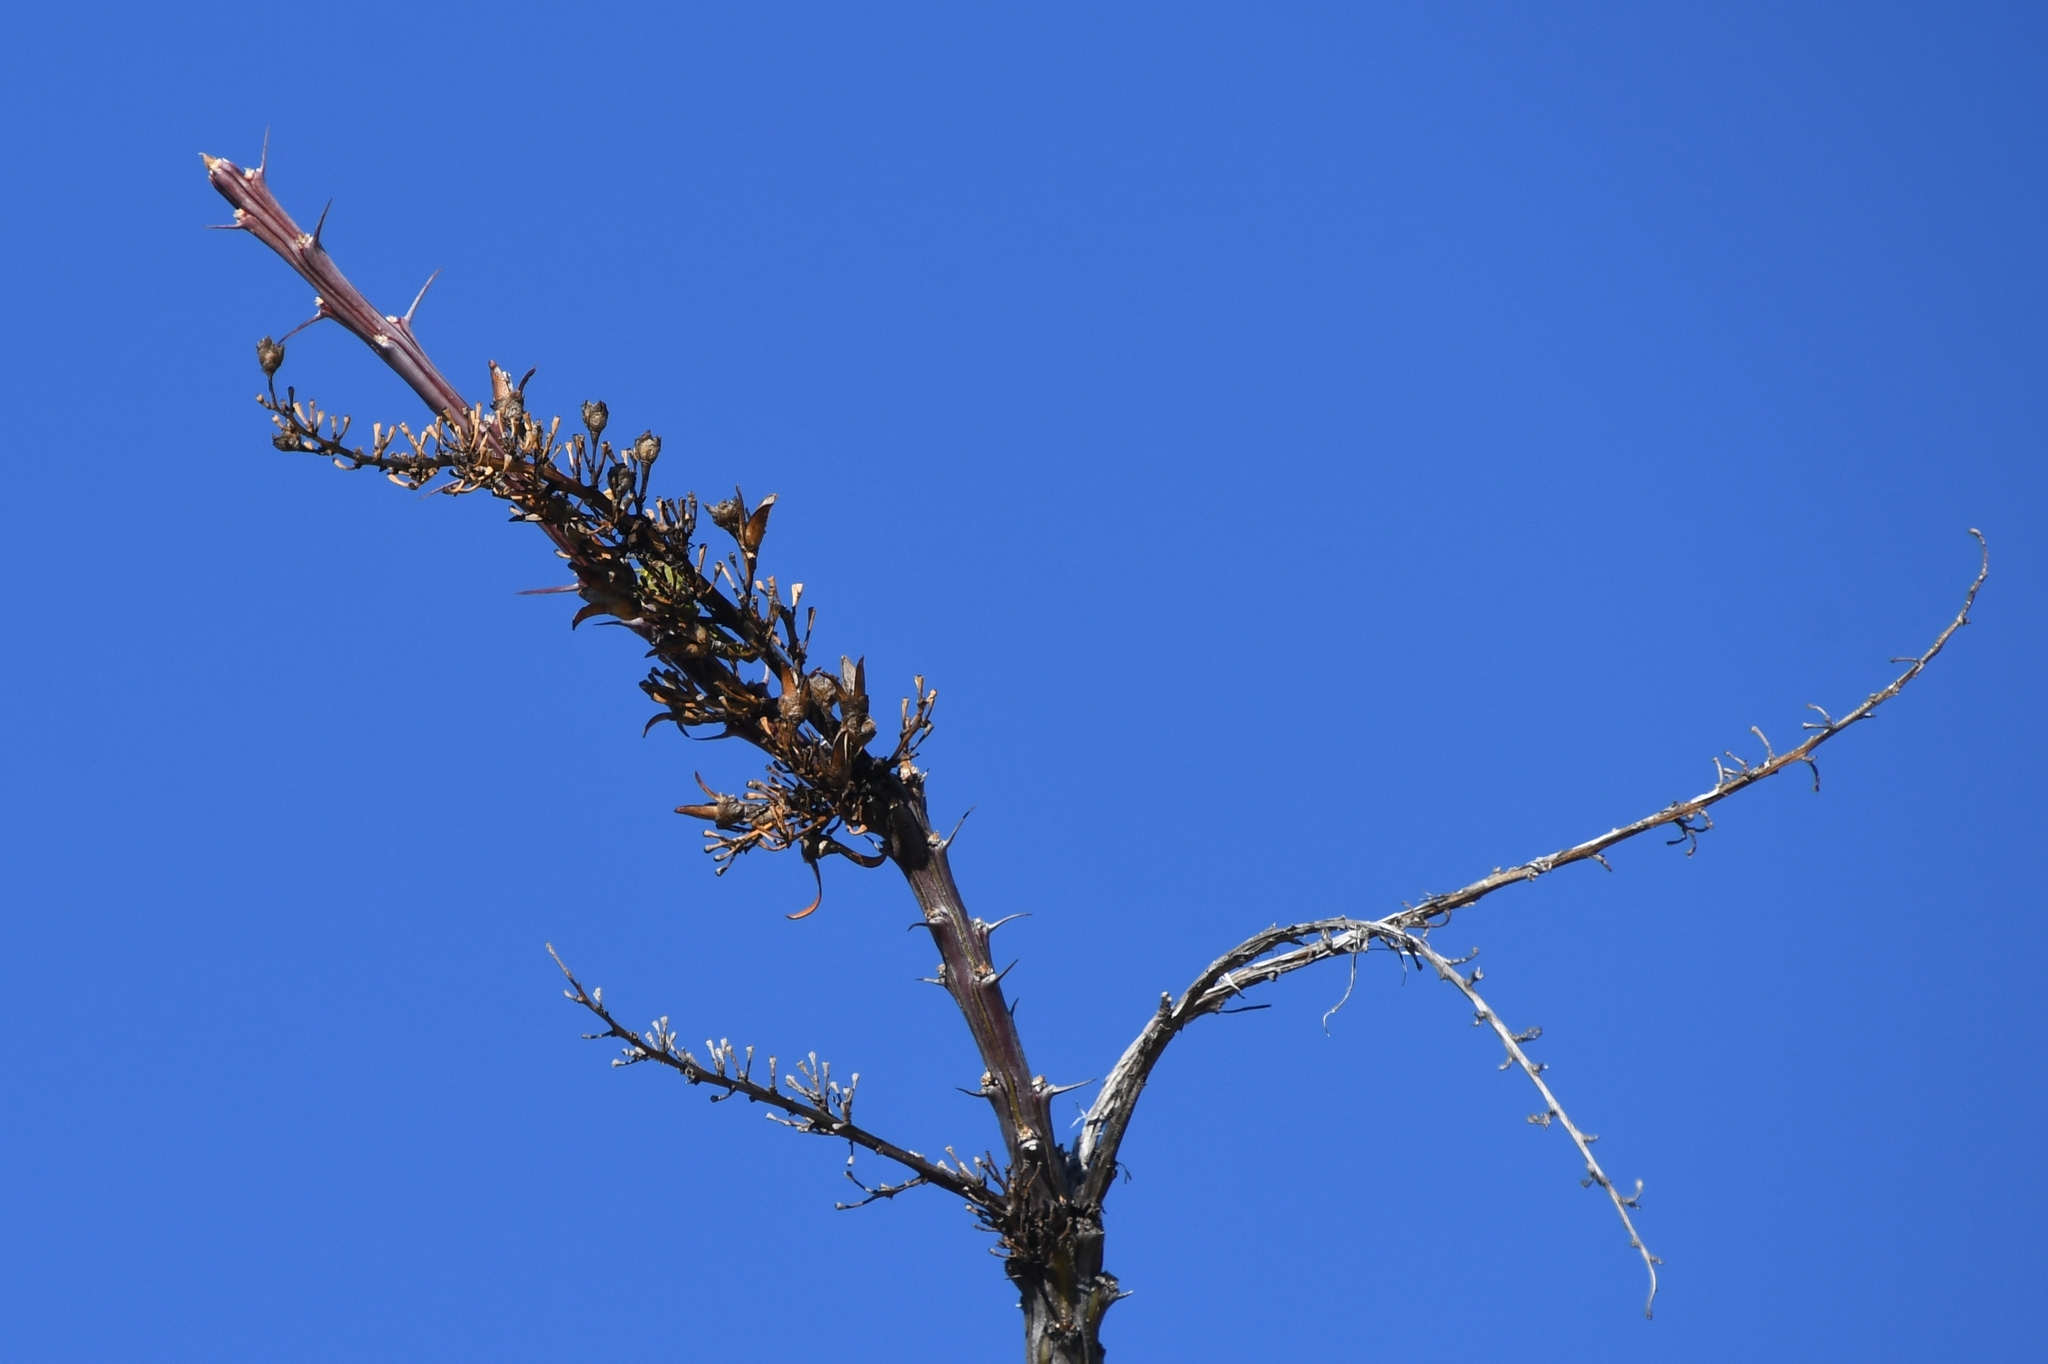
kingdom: Plantae
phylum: Tracheophyta
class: Magnoliopsida
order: Ericales
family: Fouquieriaceae
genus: Fouquieria
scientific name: Fouquieria splendens
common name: Vine-cactus
